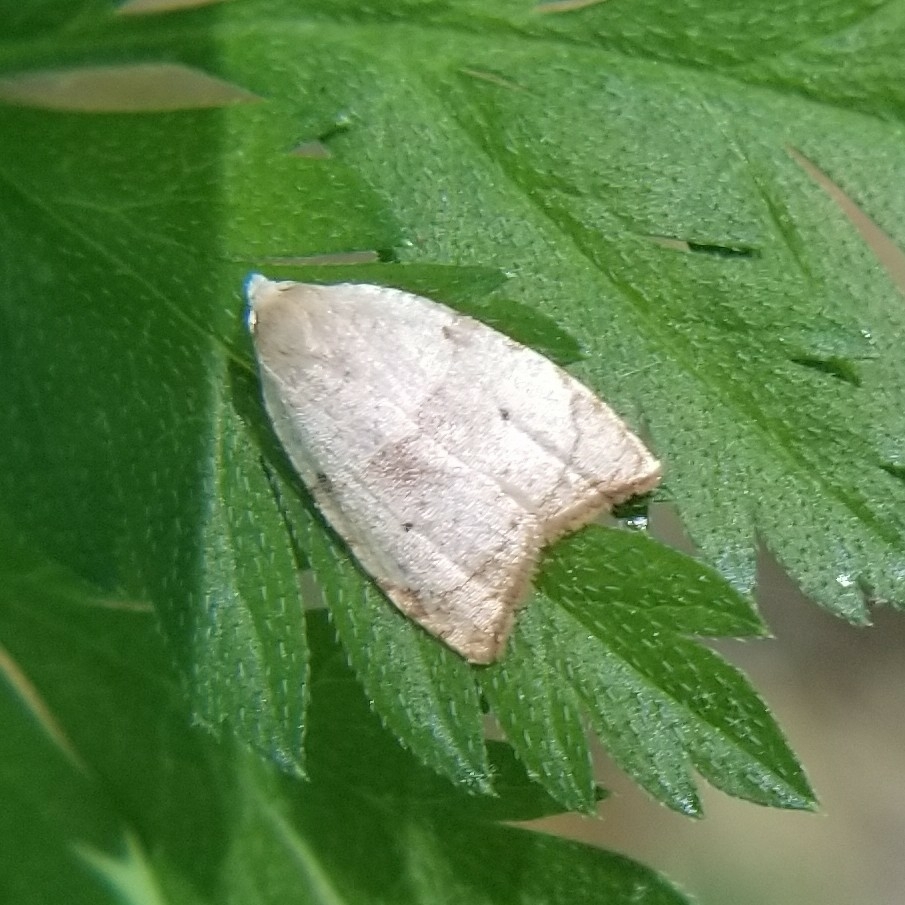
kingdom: Animalia
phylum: Arthropoda
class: Insecta
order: Lepidoptera
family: Tortricidae
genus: Coelostathma
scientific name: Coelostathma discopunctana
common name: Batman moth
